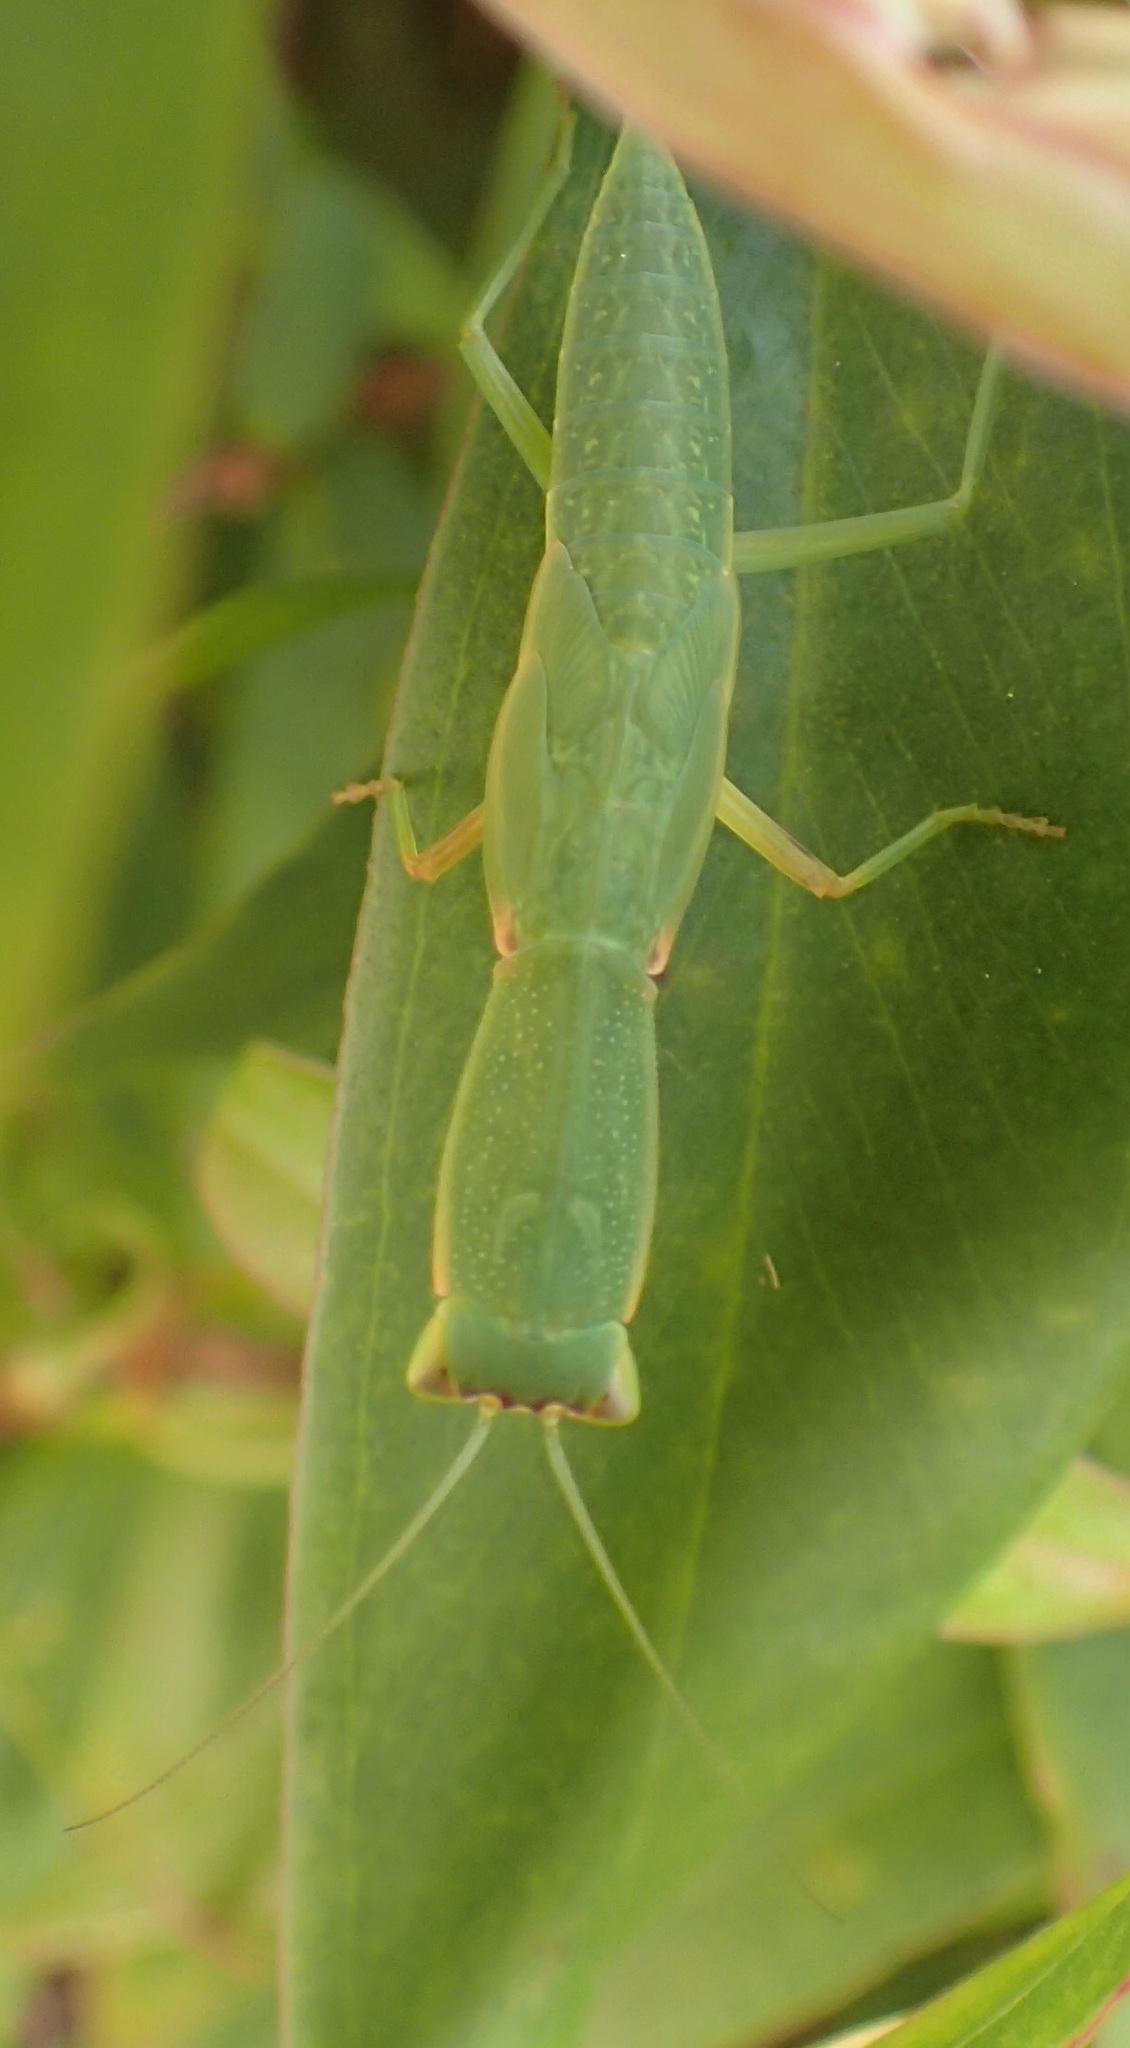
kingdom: Animalia
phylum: Arthropoda
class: Insecta
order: Mantodea
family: Mantidae
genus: Orthodera
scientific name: Orthodera ministralis
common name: Mantis
